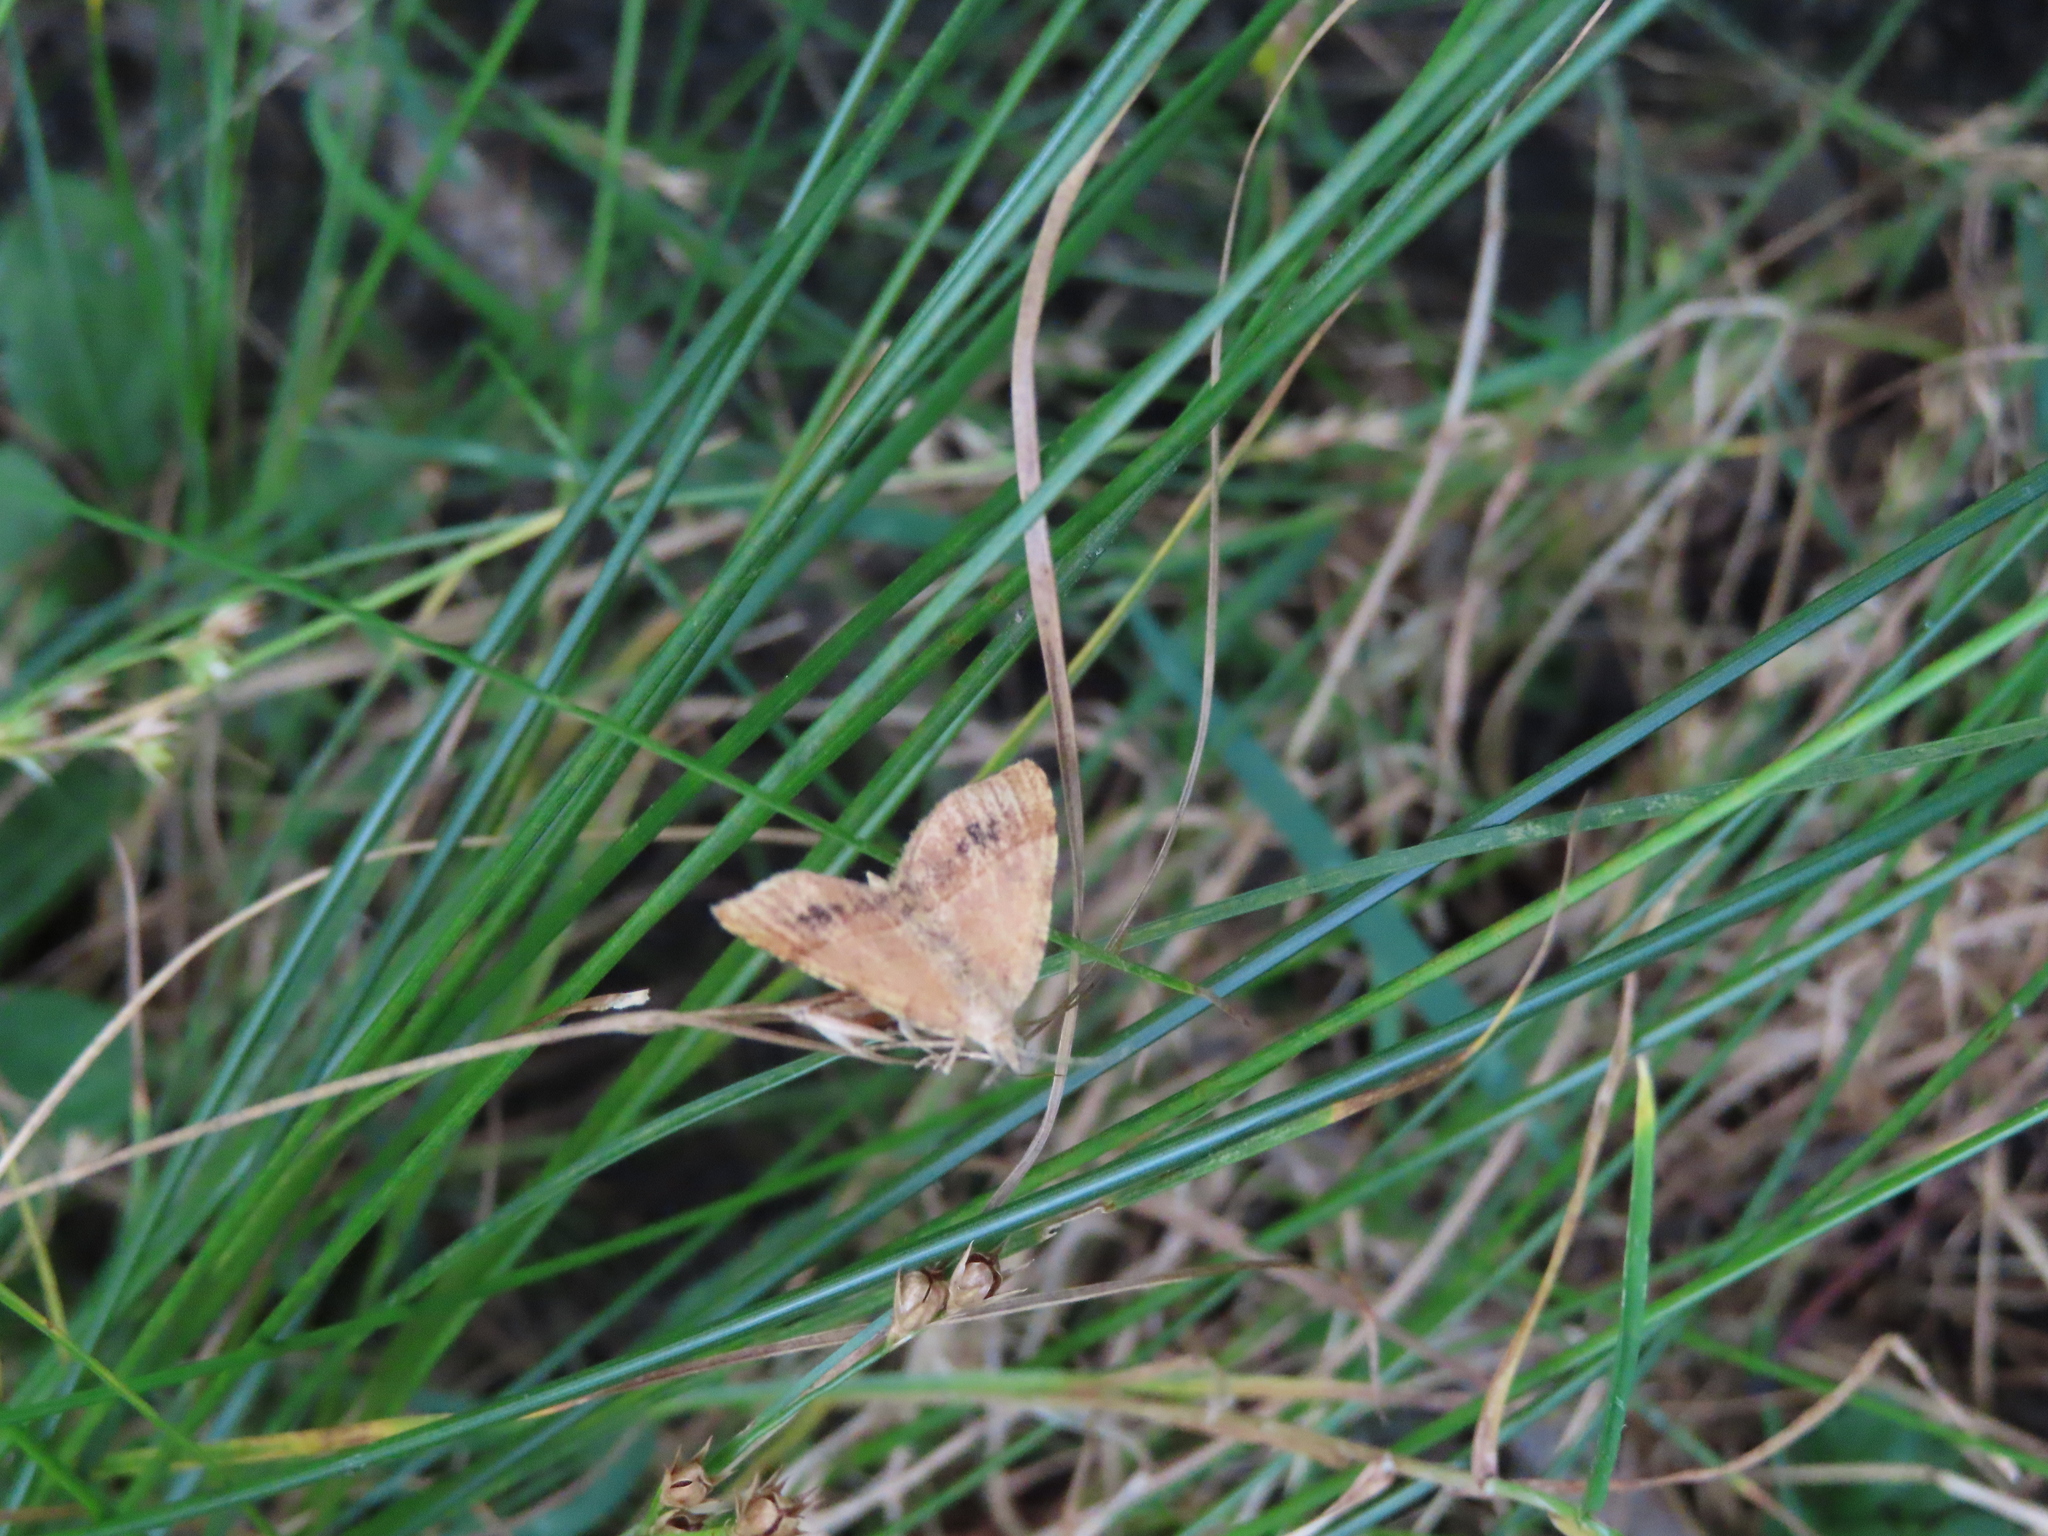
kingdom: Animalia
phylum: Arthropoda
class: Insecta
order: Lepidoptera
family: Geometridae
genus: Mellilla
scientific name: Mellilla xanthometata
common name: Orange wing moth
